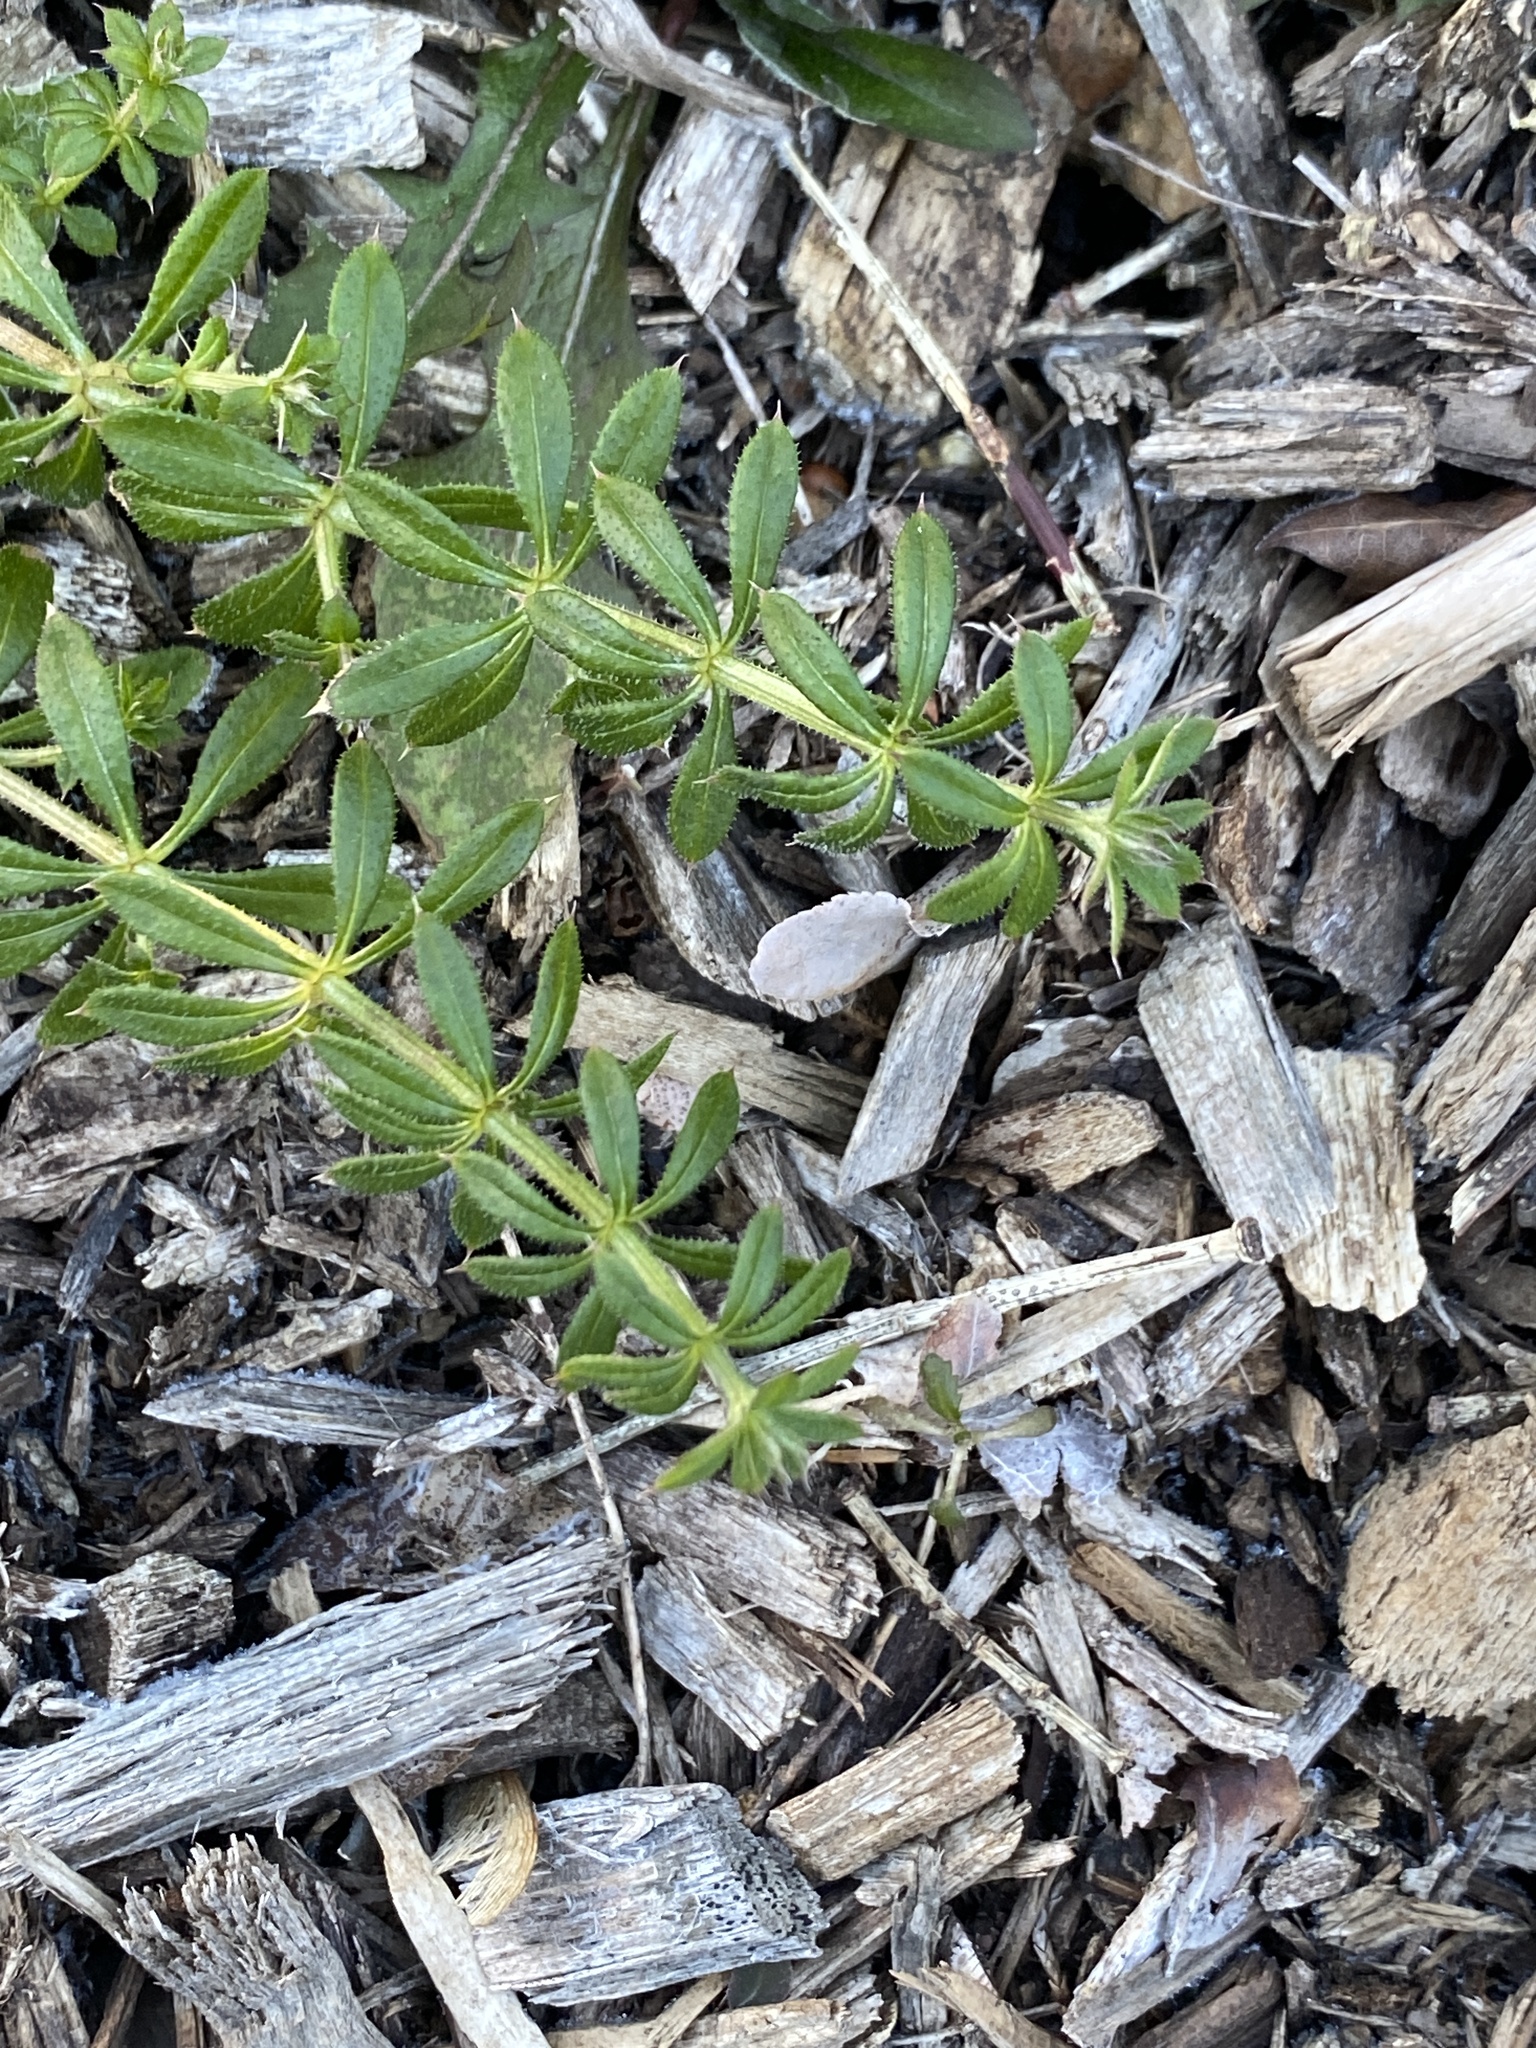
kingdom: Plantae
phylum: Tracheophyta
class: Magnoliopsida
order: Gentianales
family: Rubiaceae
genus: Galium
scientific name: Galium aparine
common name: Cleavers
